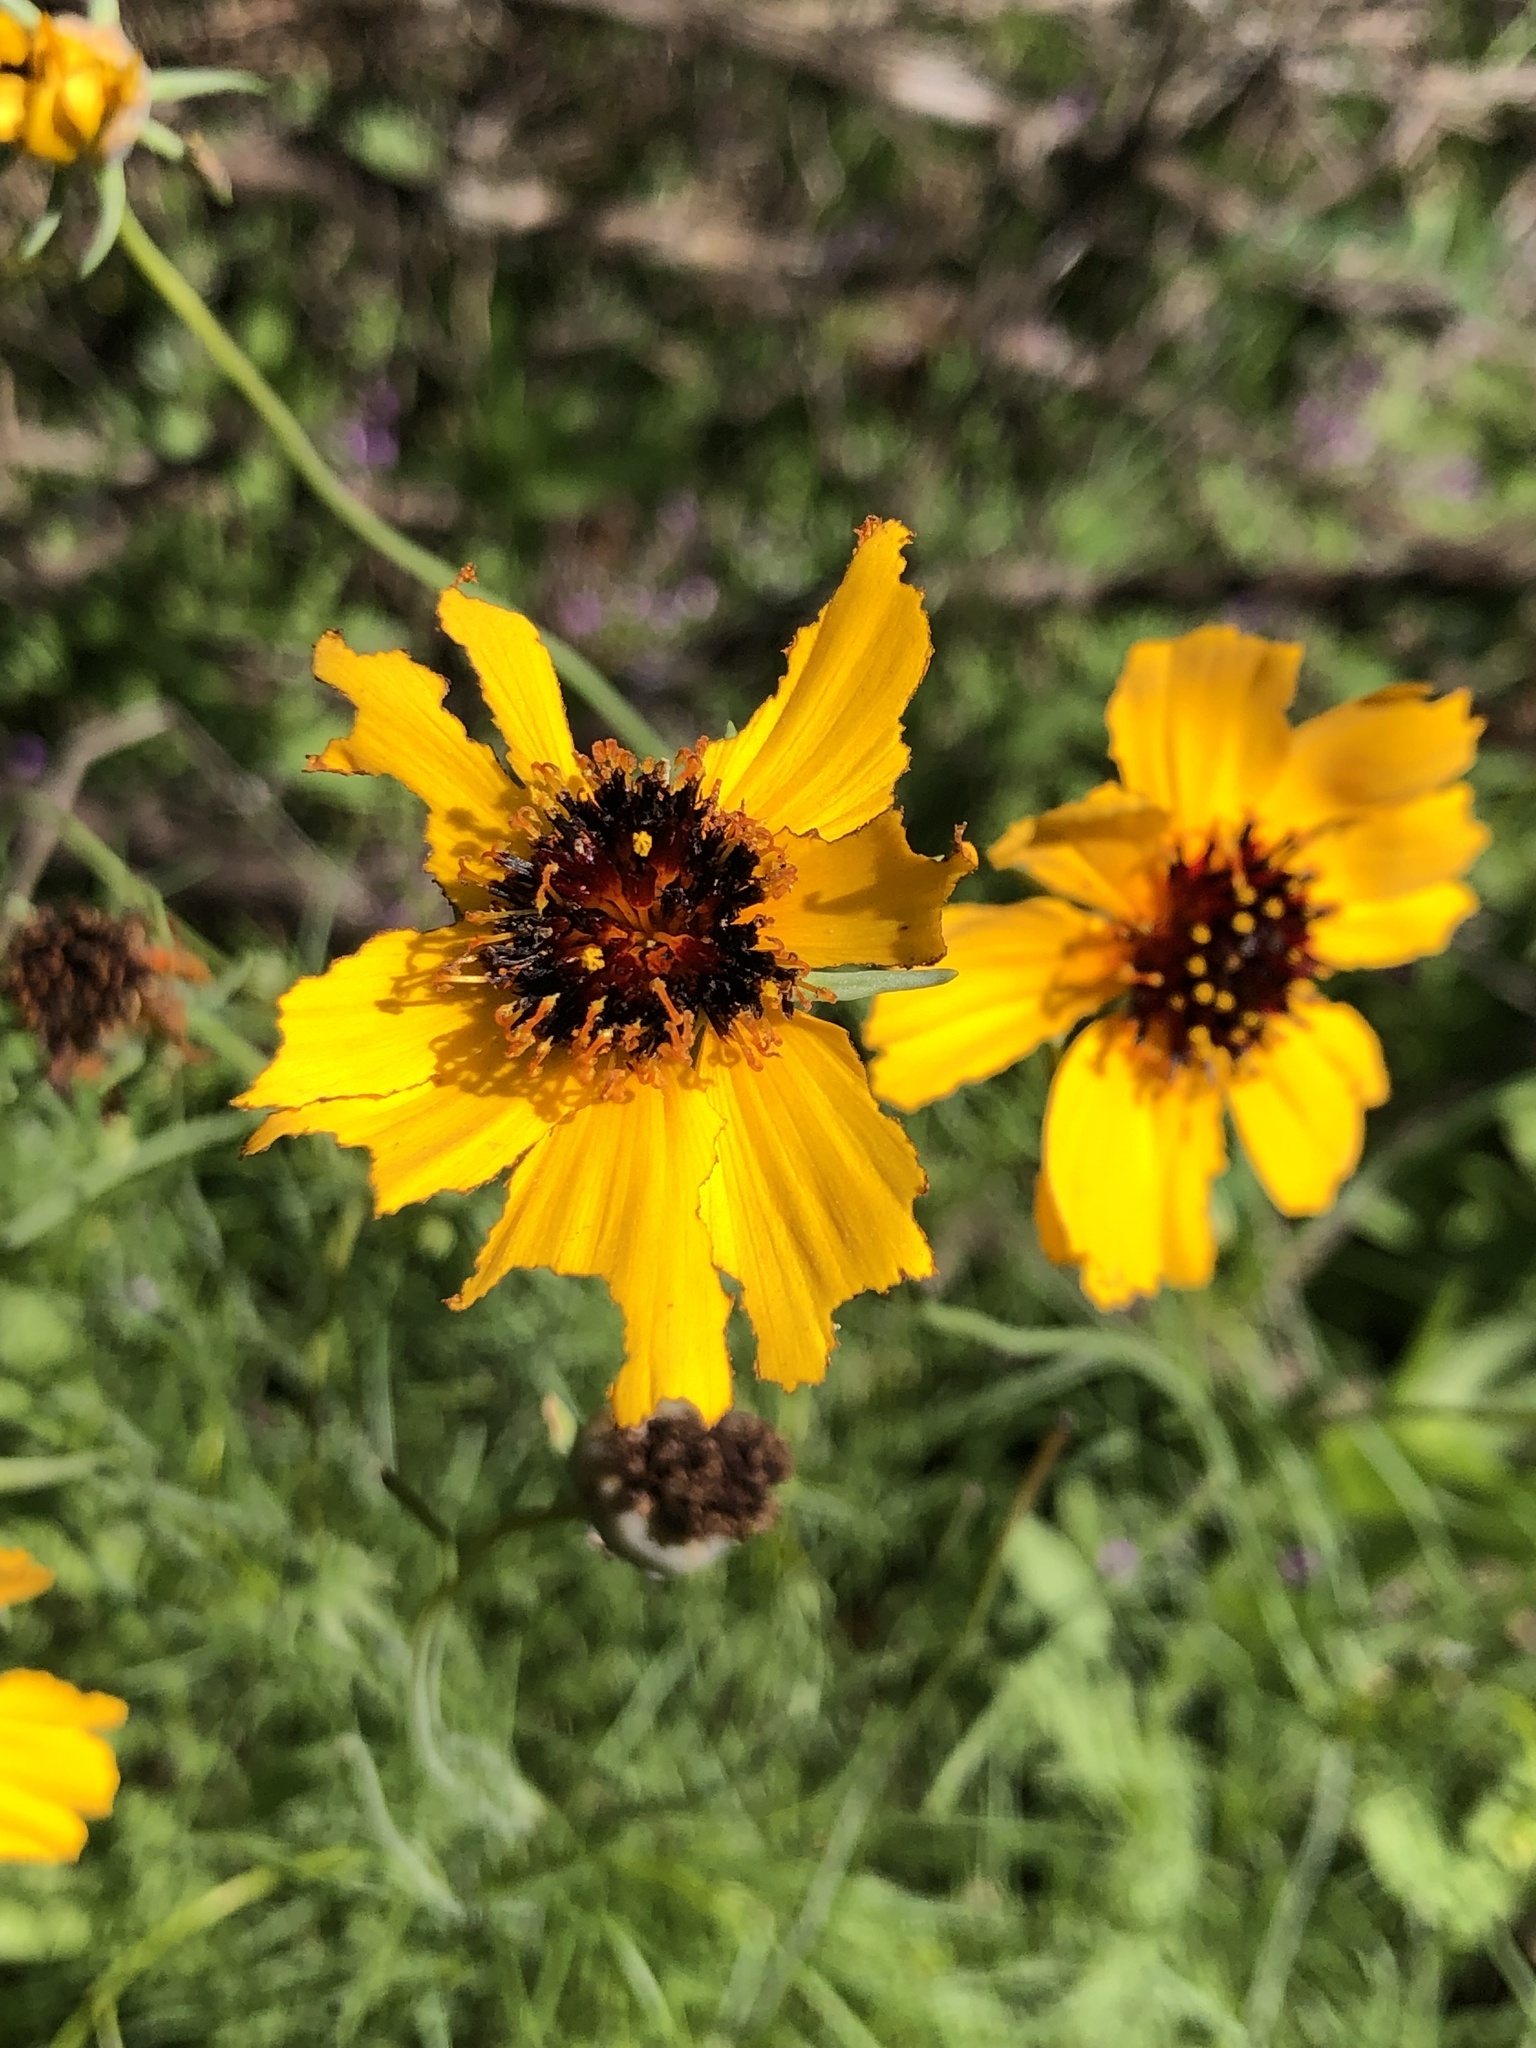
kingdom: Plantae
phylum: Tracheophyta
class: Magnoliopsida
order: Asterales
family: Asteraceae
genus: Thelesperma
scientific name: Thelesperma filifolium
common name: Stiff greenthread
